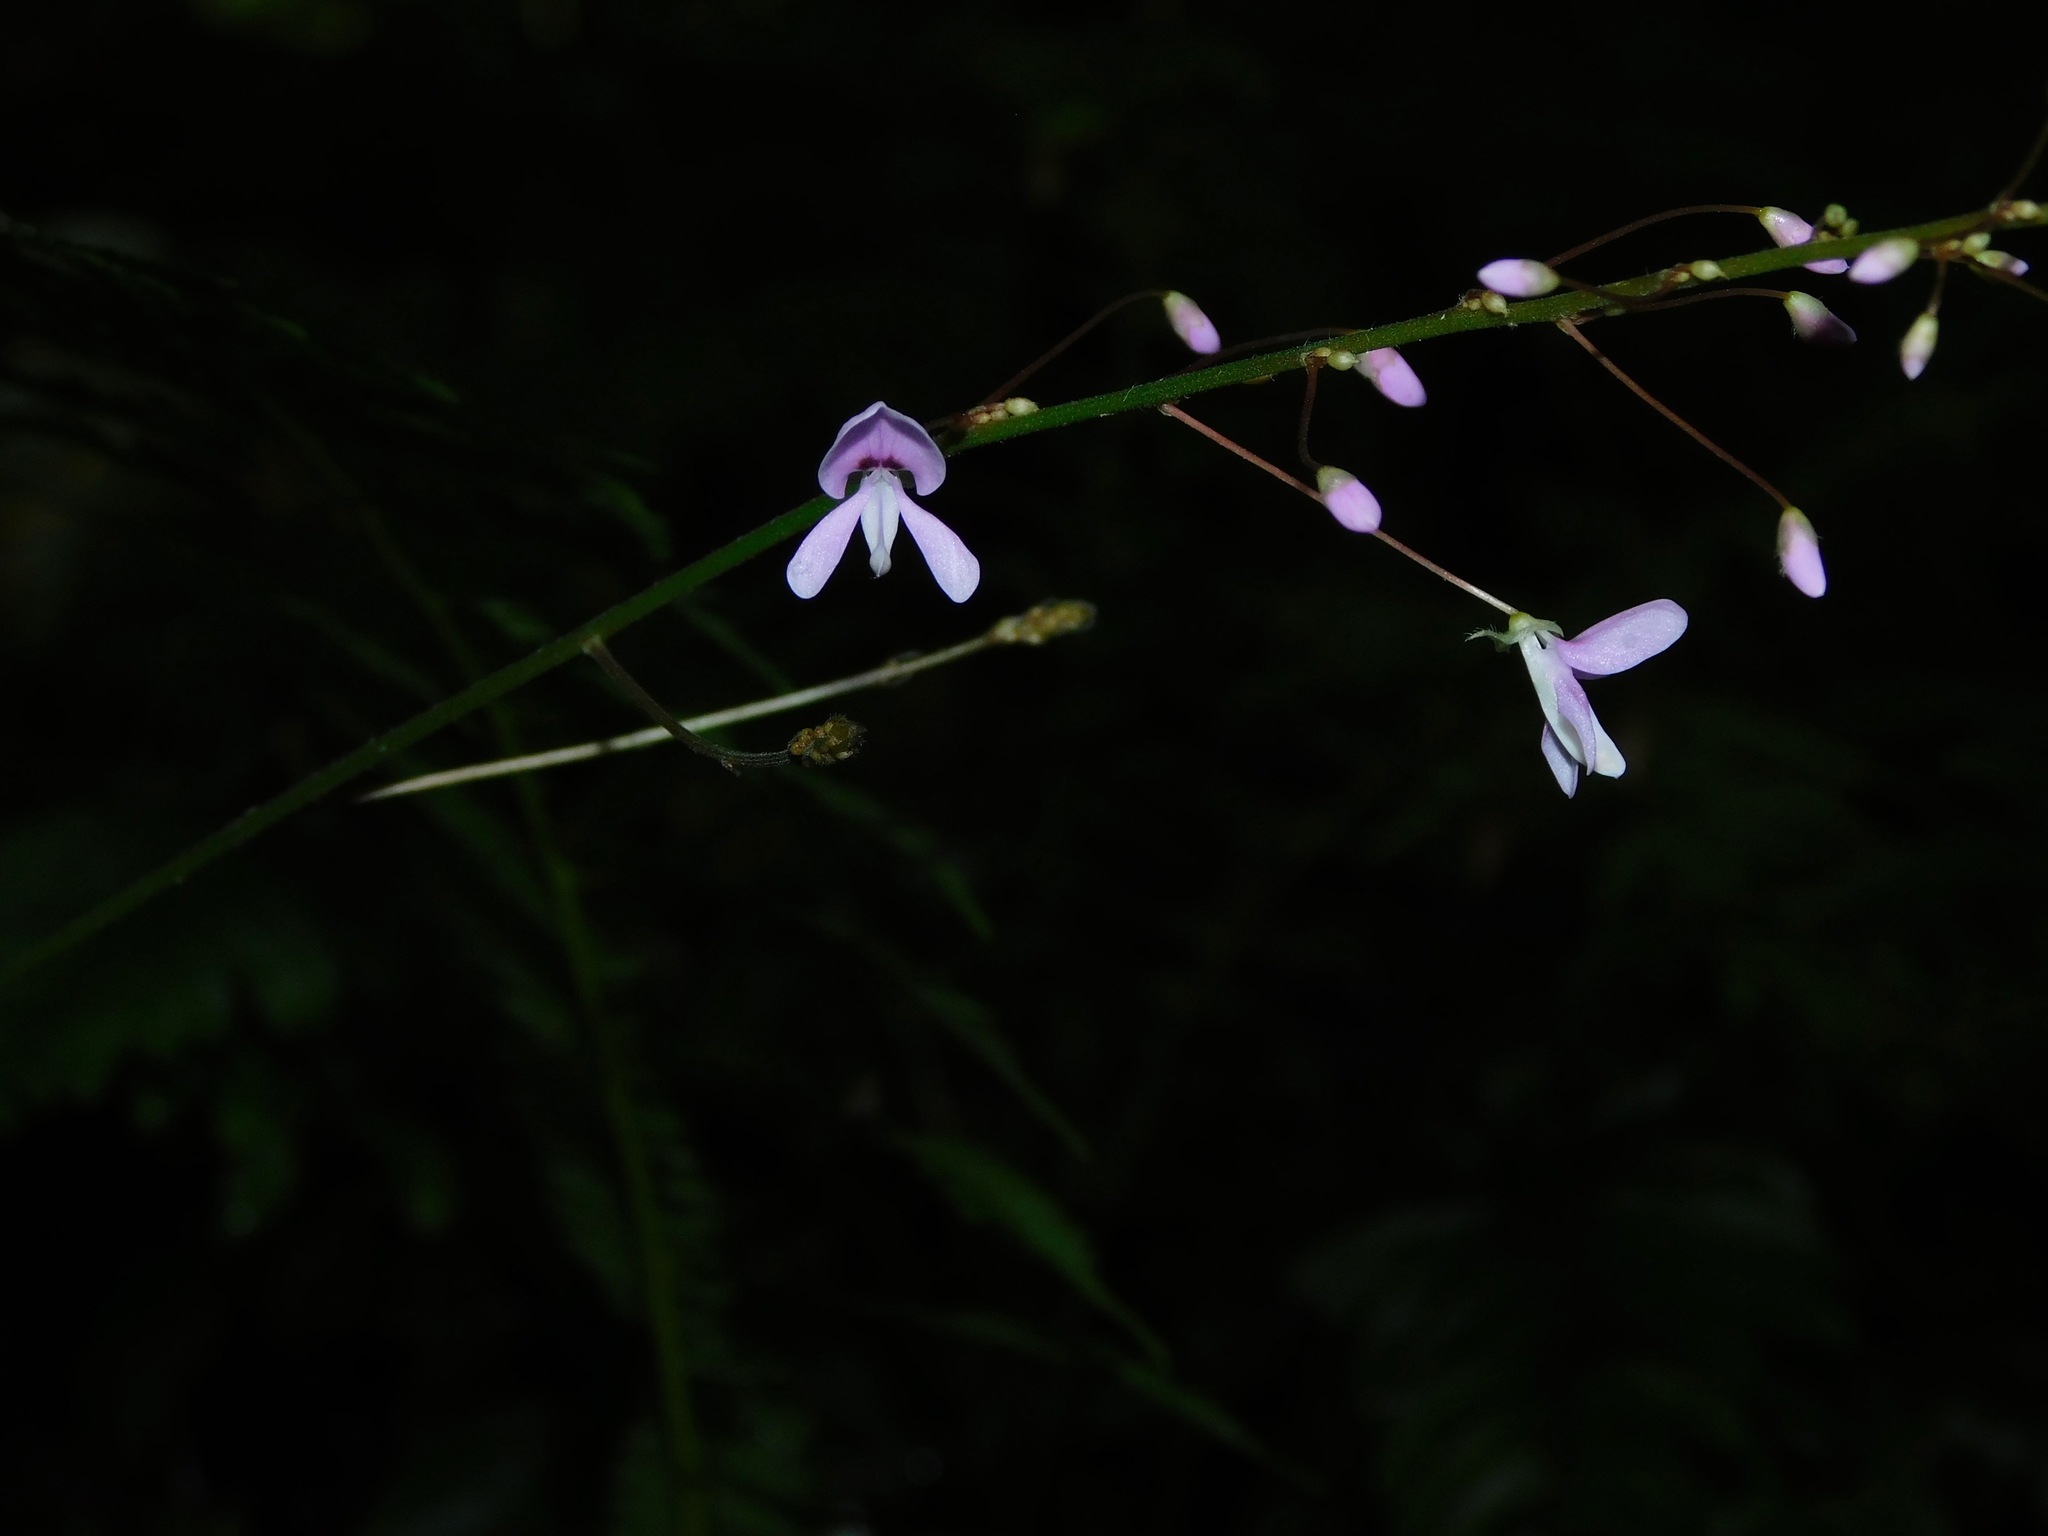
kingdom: Plantae
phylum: Tracheophyta
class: Magnoliopsida
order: Fabales
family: Fabaceae
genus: Hylodesmum
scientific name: Hylodesmum nudiflorum
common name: Bare-stemmed tick-trefoil
